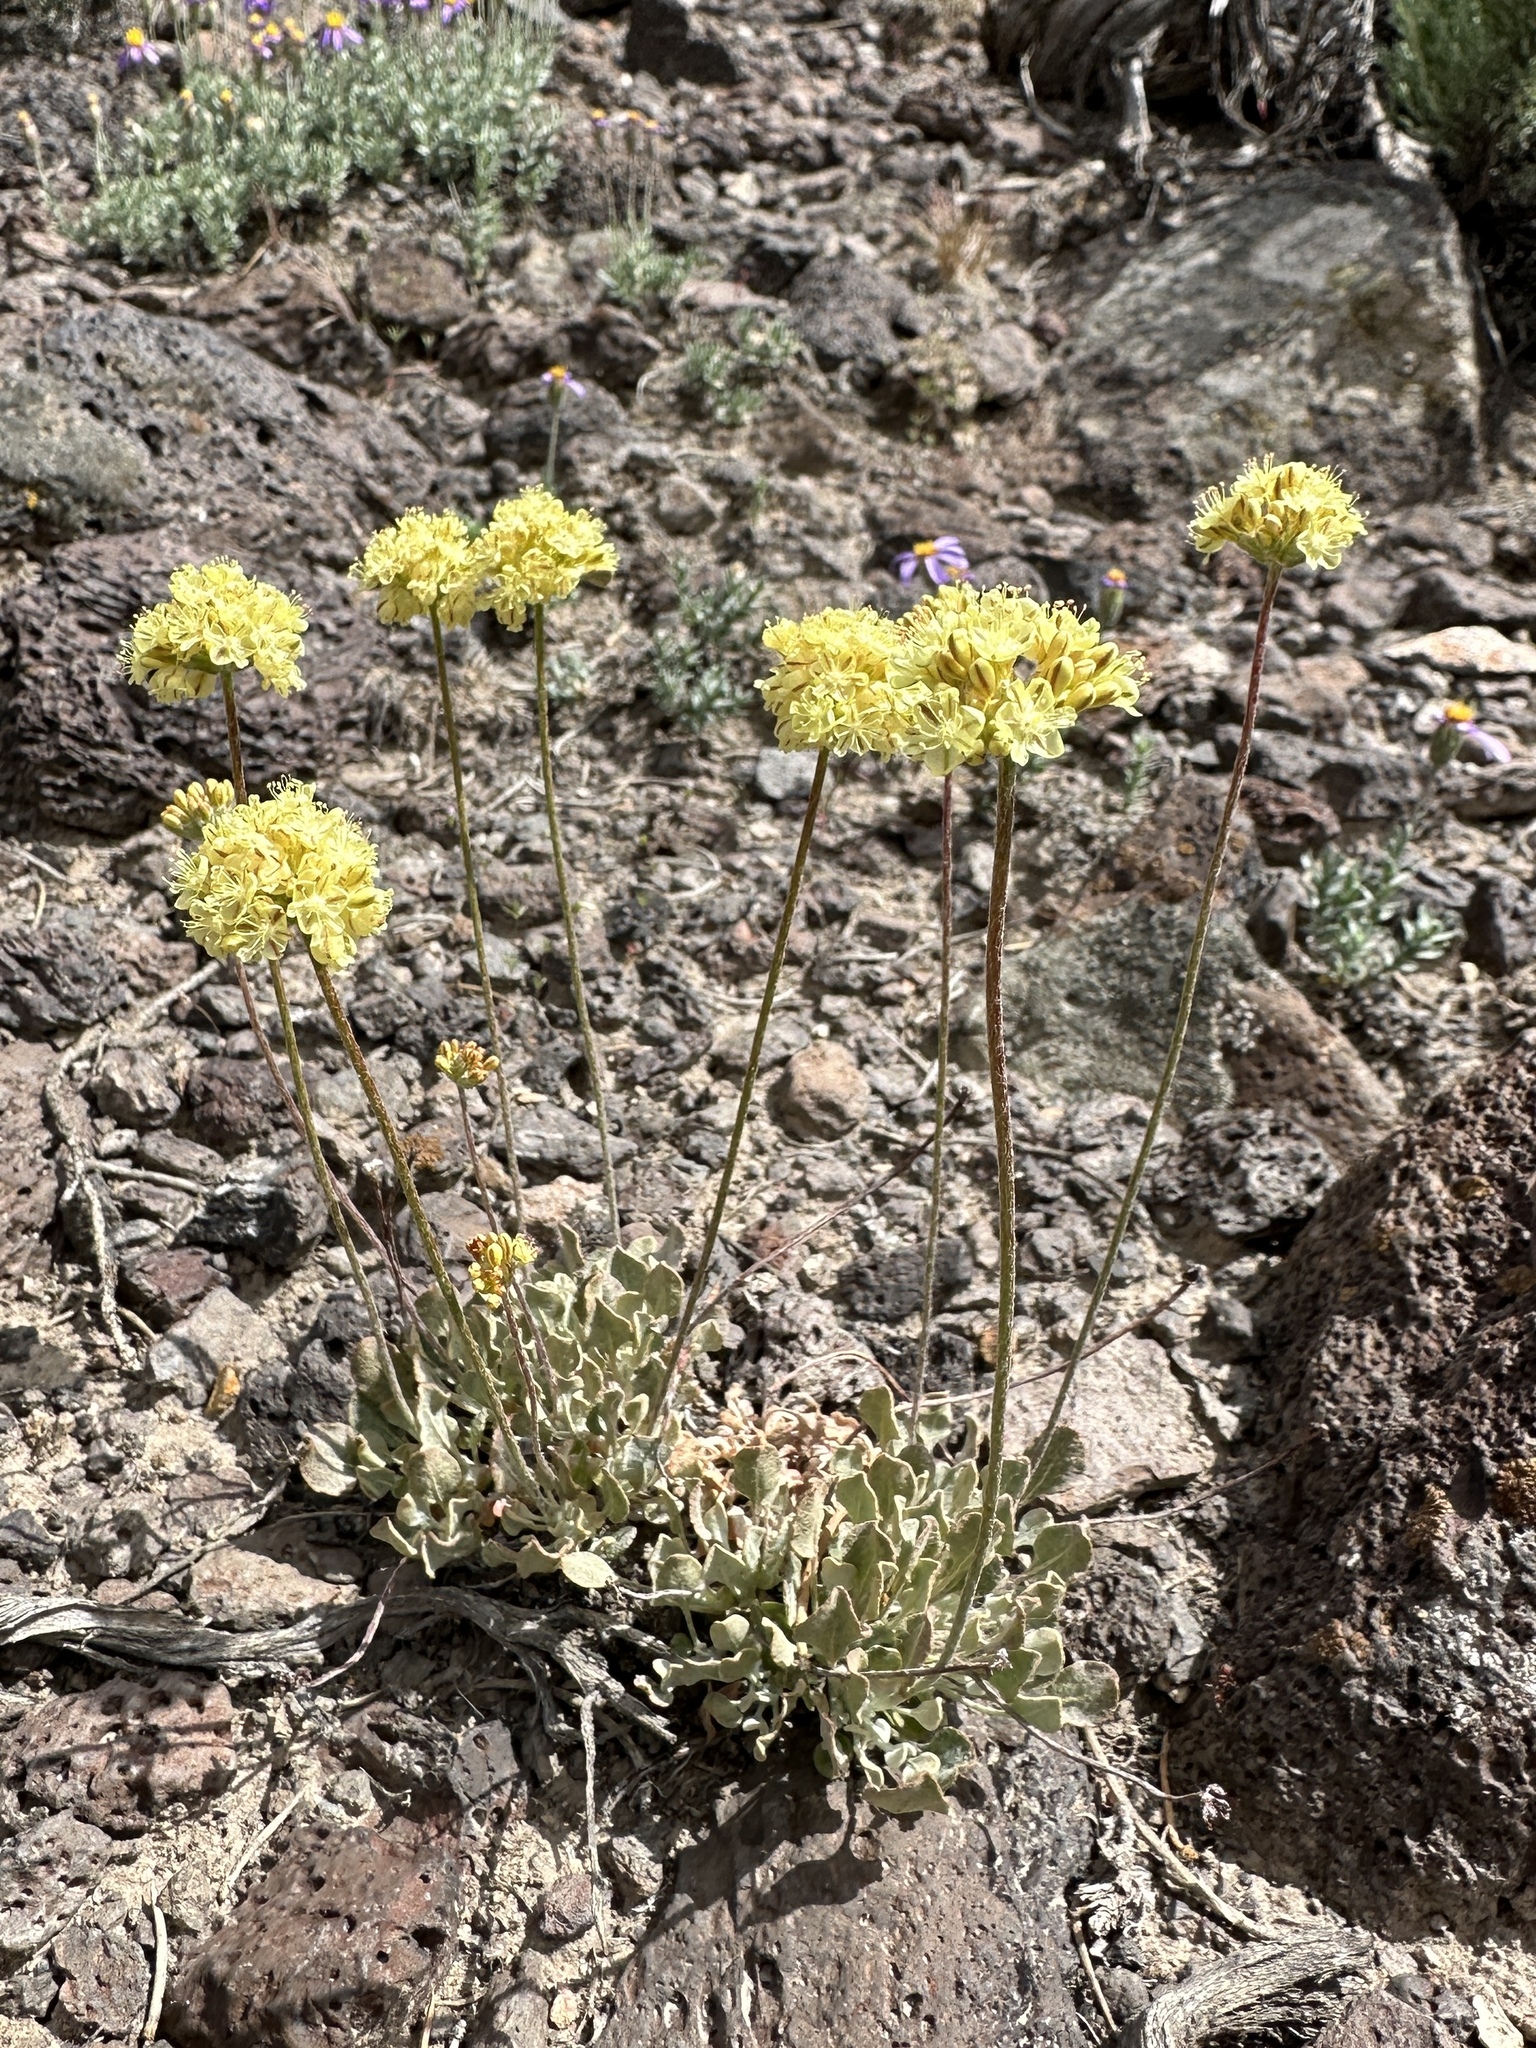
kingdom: Plantae
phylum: Tracheophyta
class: Magnoliopsida
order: Caryophyllales
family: Polygonaceae
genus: Eriogonum
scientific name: Eriogonum ovalifolium
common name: Cushion buckwheat
